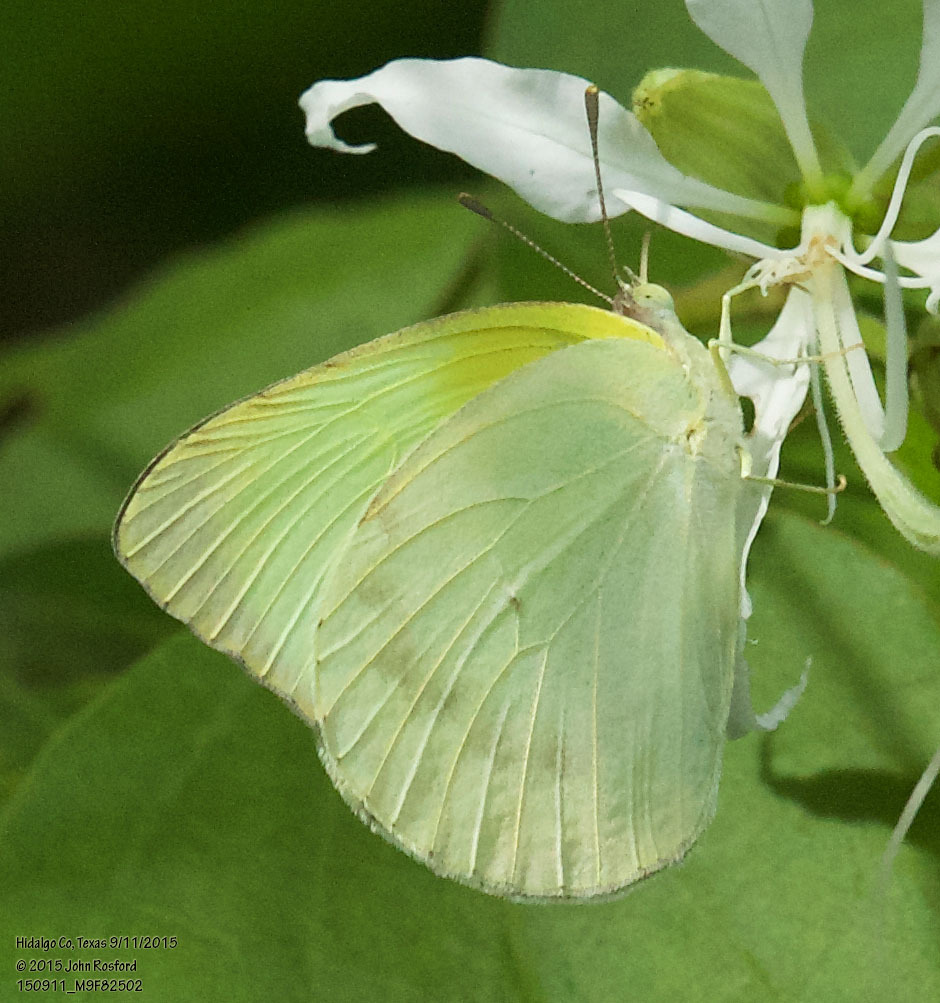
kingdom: Animalia
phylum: Arthropoda
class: Insecta
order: Lepidoptera
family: Pieridae
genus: Kricogonia
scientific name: Kricogonia lyside
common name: Guayacan sulphur,
